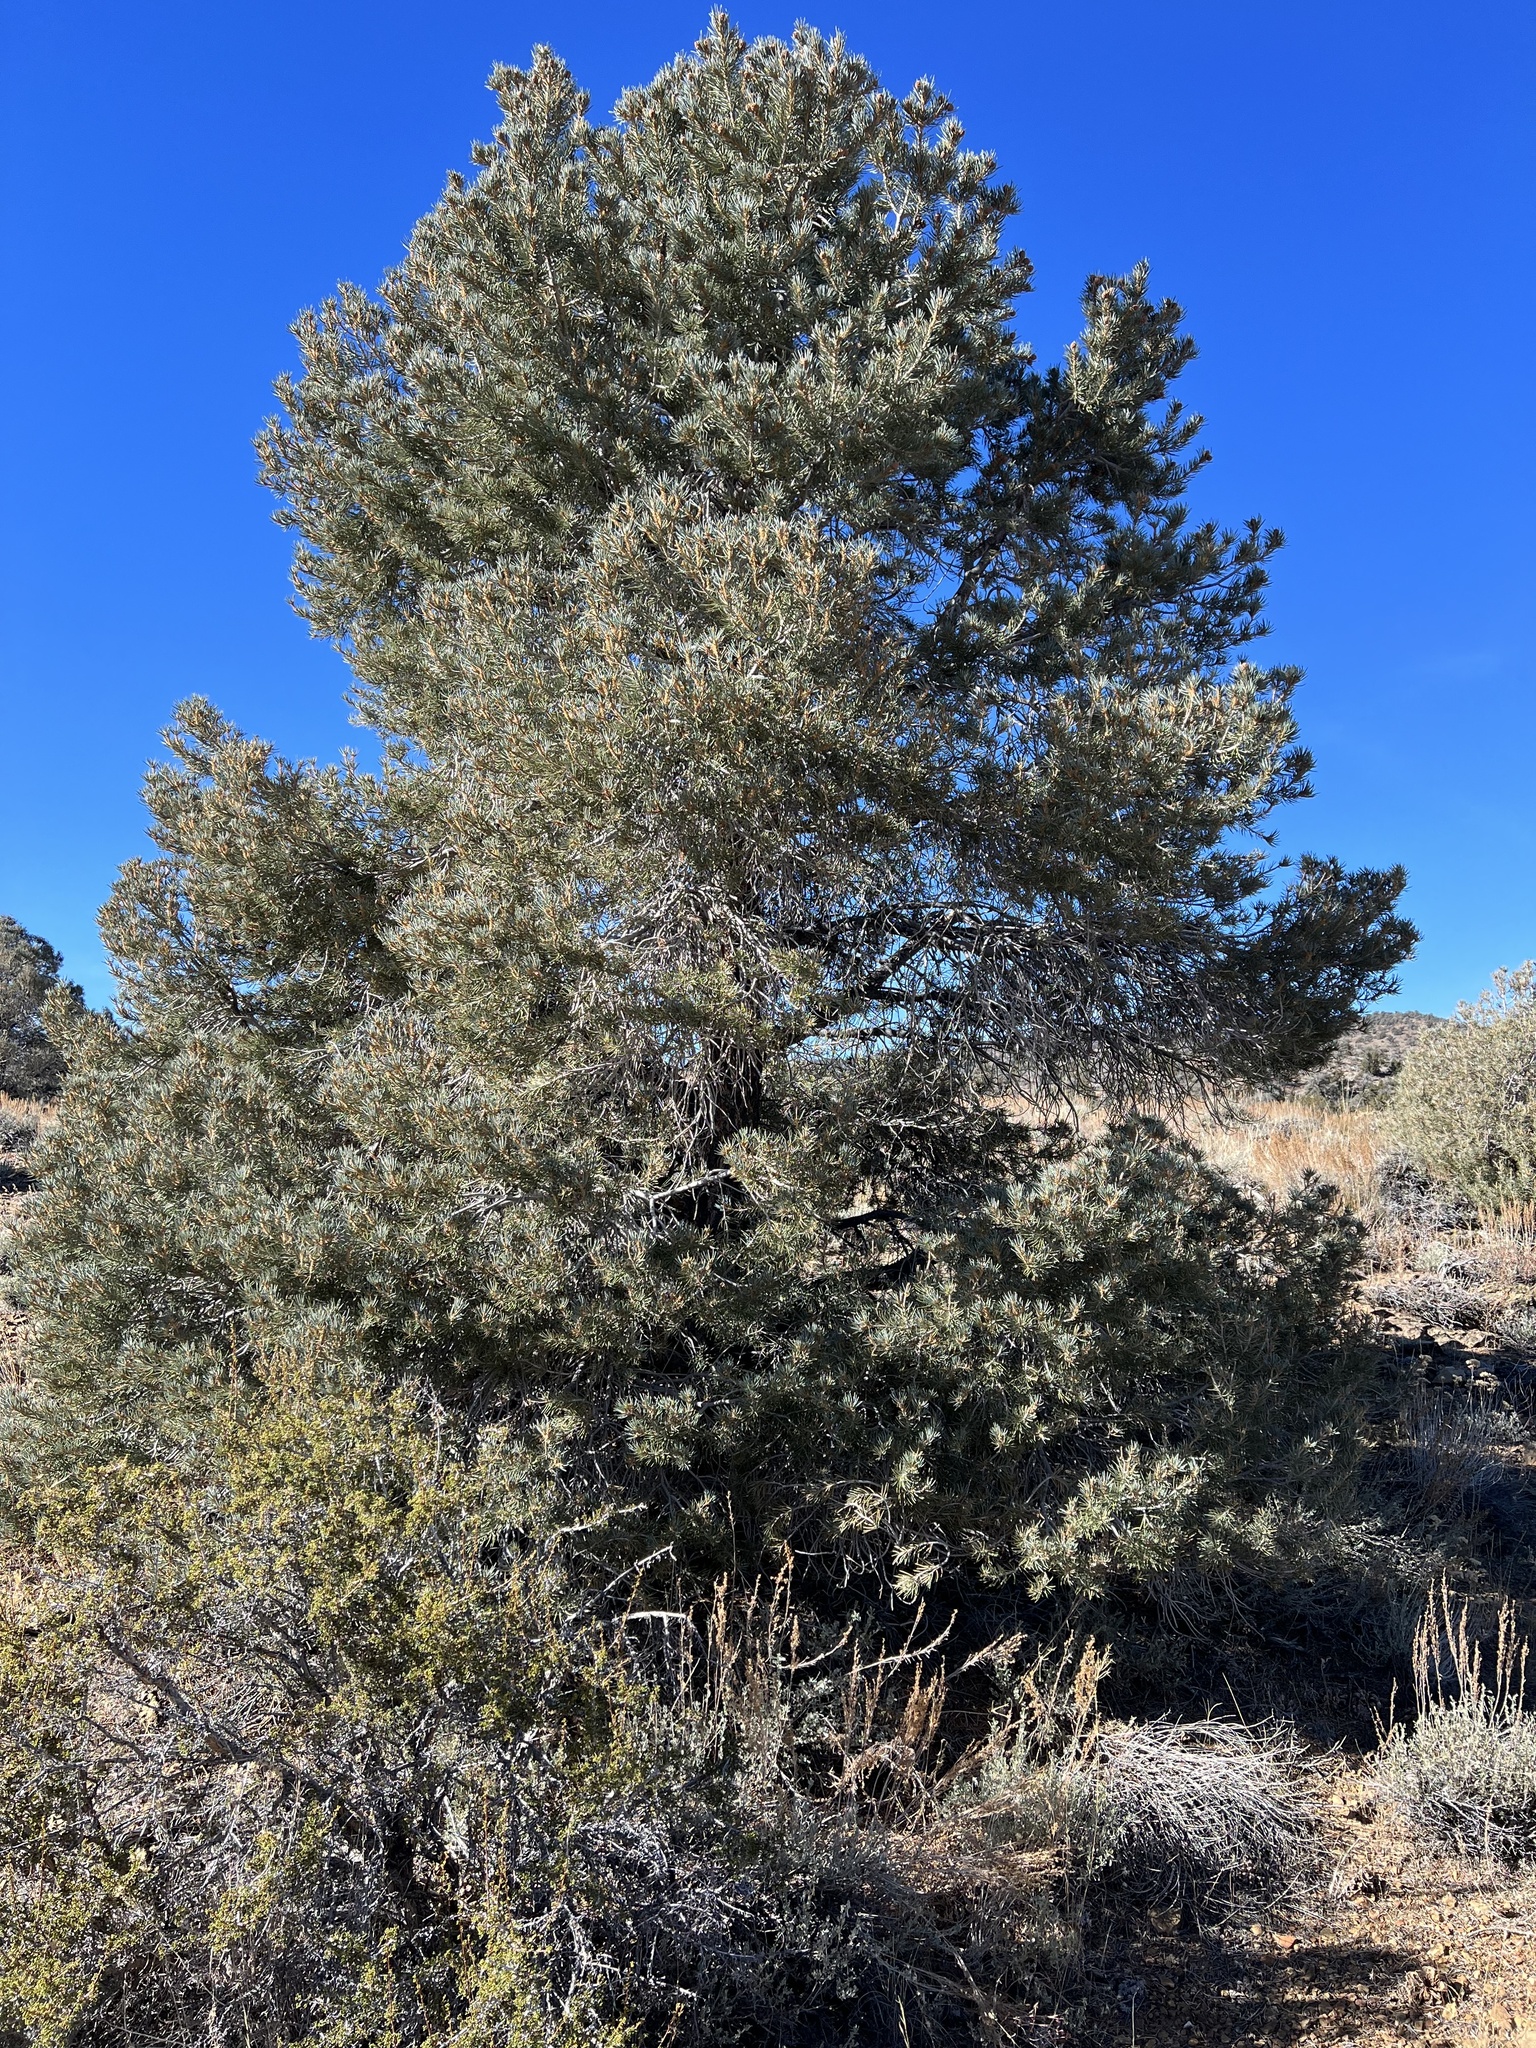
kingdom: Plantae
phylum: Tracheophyta
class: Pinopsida
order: Pinales
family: Pinaceae
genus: Pinus
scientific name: Pinus monophylla
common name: One-leaved nut pine
